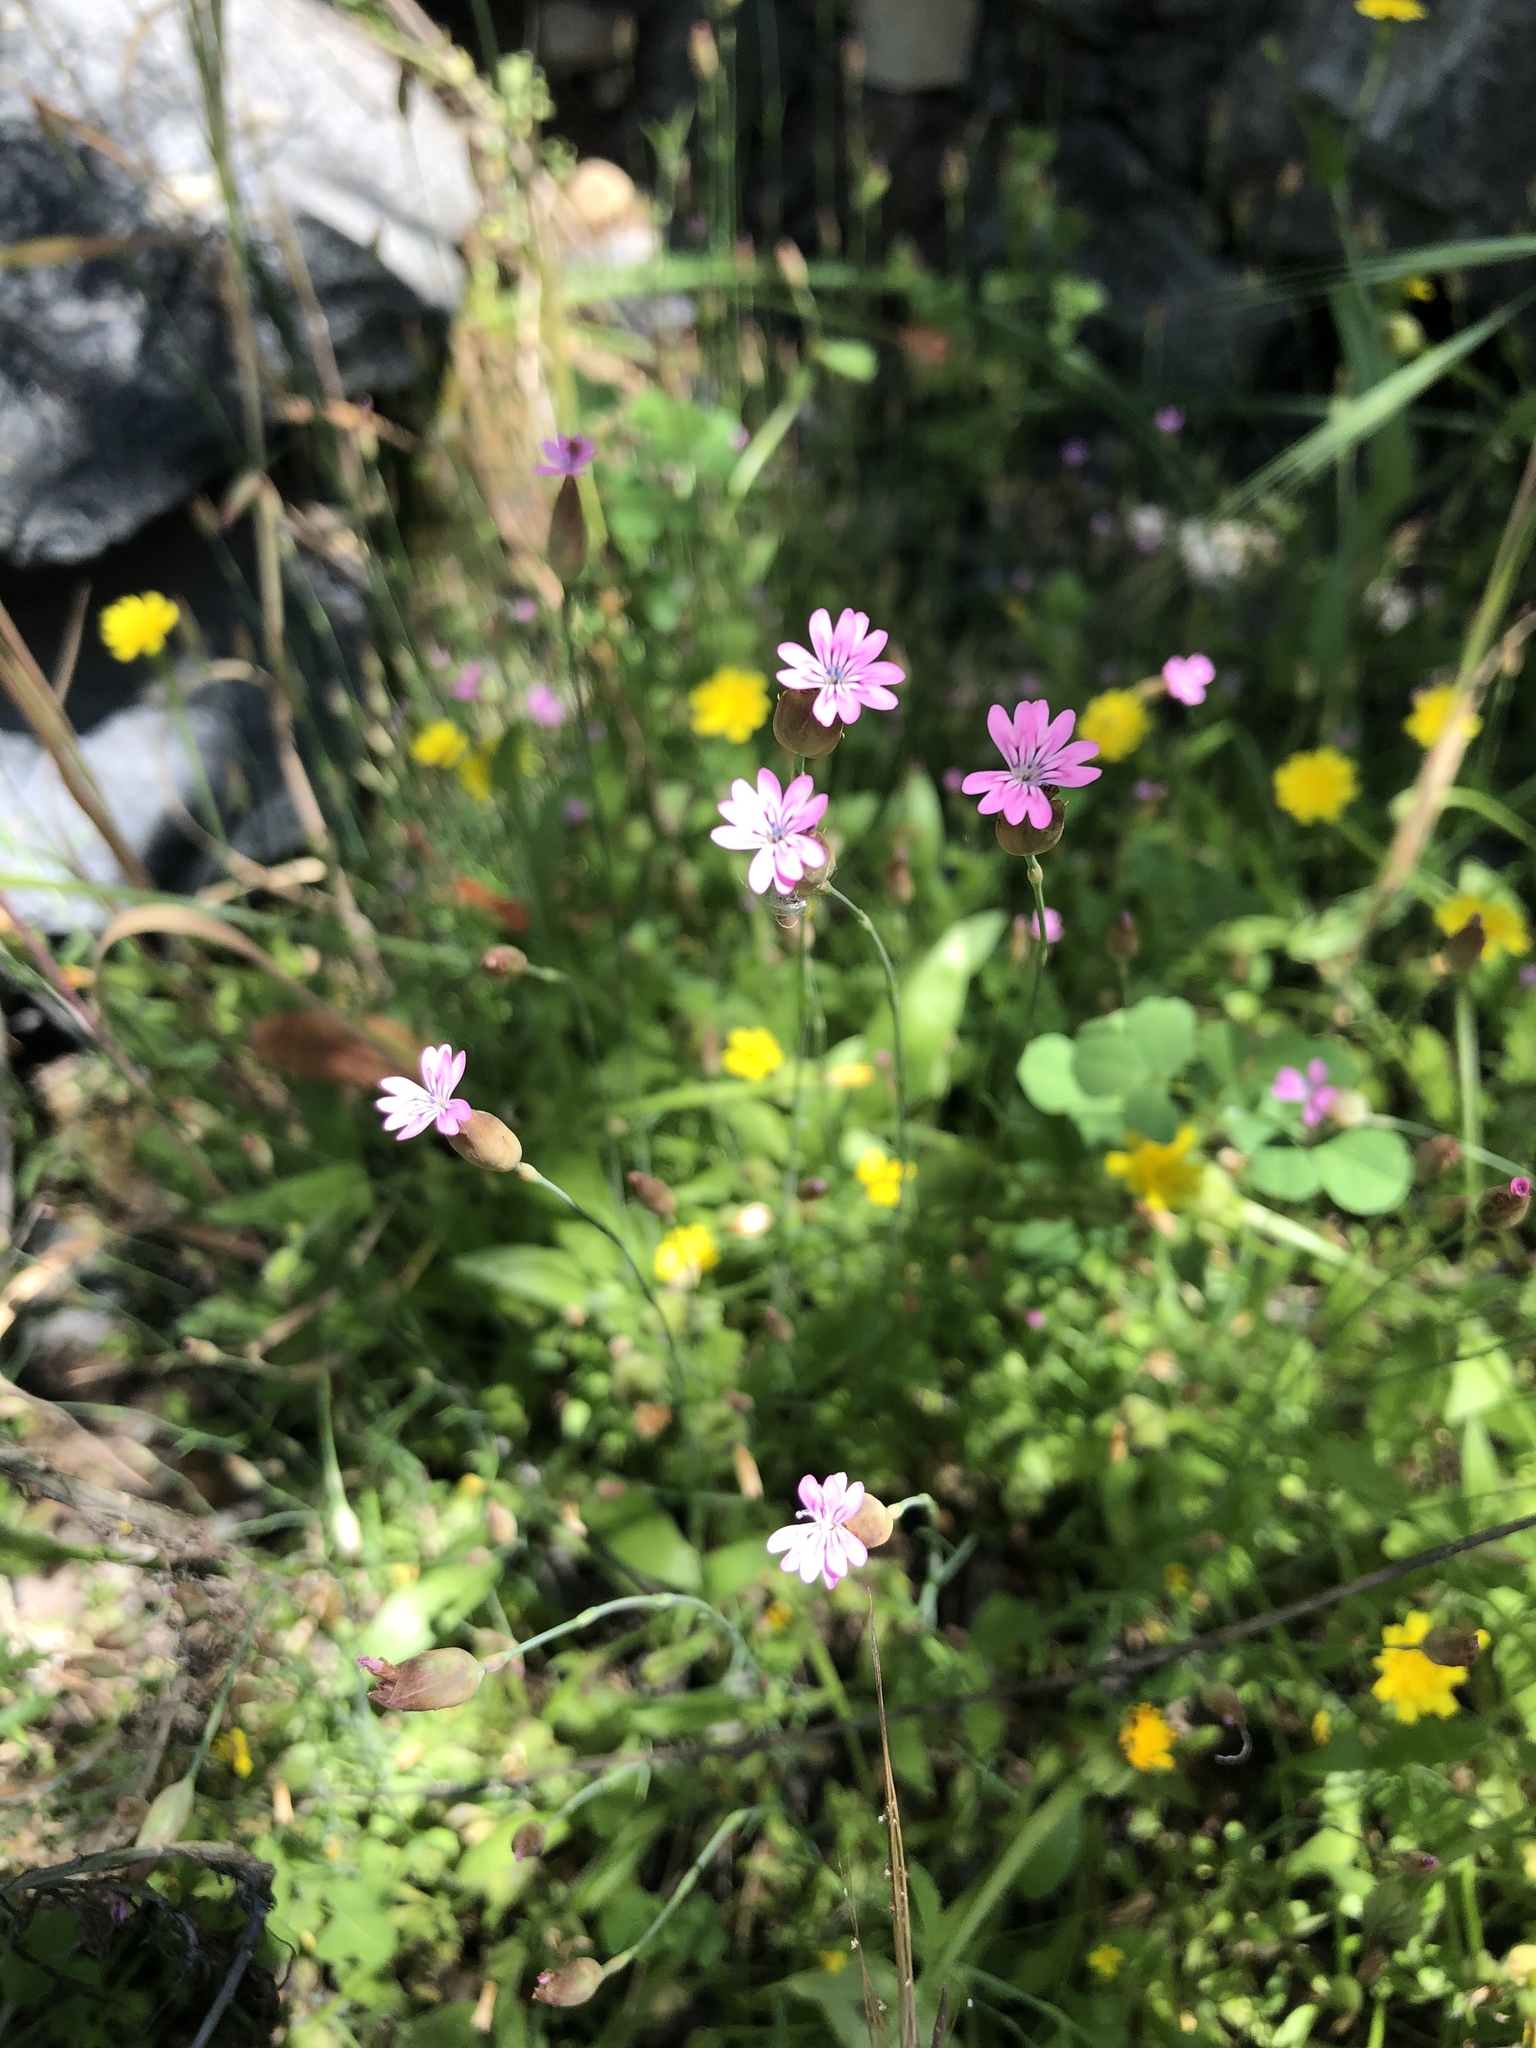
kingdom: Plantae
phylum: Tracheophyta
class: Magnoliopsida
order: Caryophyllales
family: Caryophyllaceae
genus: Petrorhagia
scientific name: Petrorhagia dubia
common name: Hairypink
